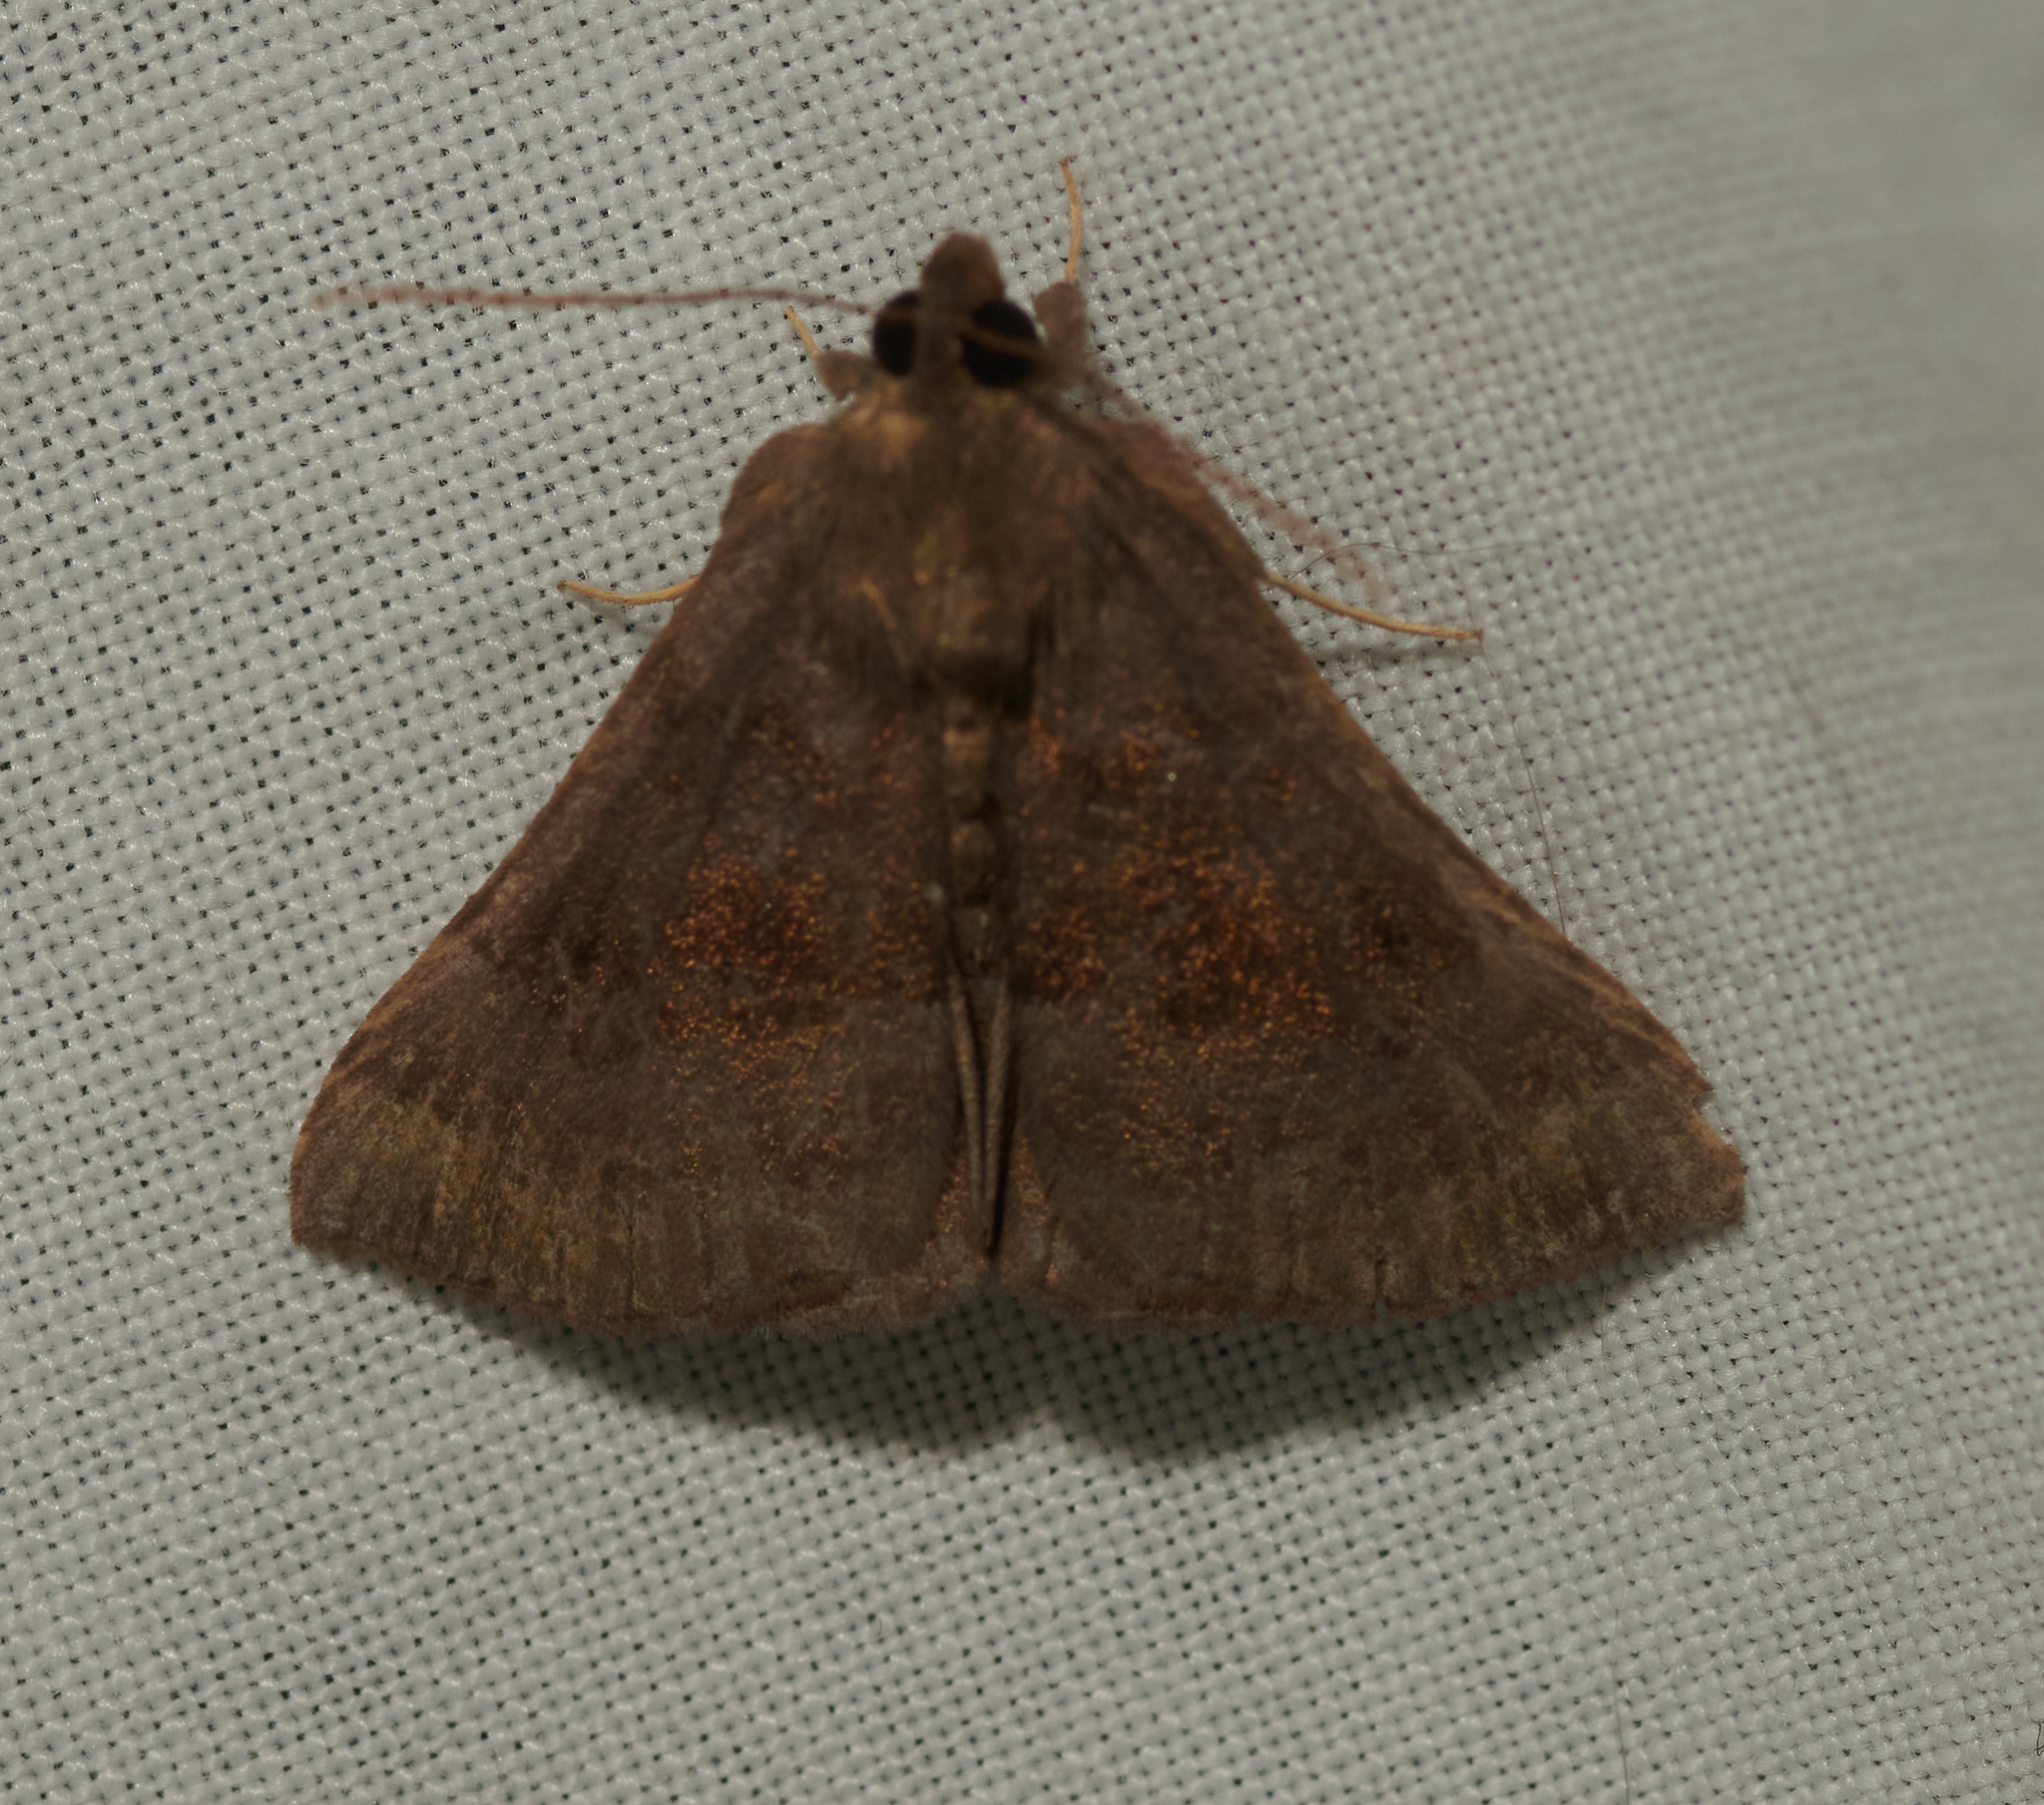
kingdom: Animalia
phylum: Arthropoda
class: Insecta
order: Lepidoptera
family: Erebidae
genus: Hypena
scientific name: Hypena madefactalis
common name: Gray-edged snout
